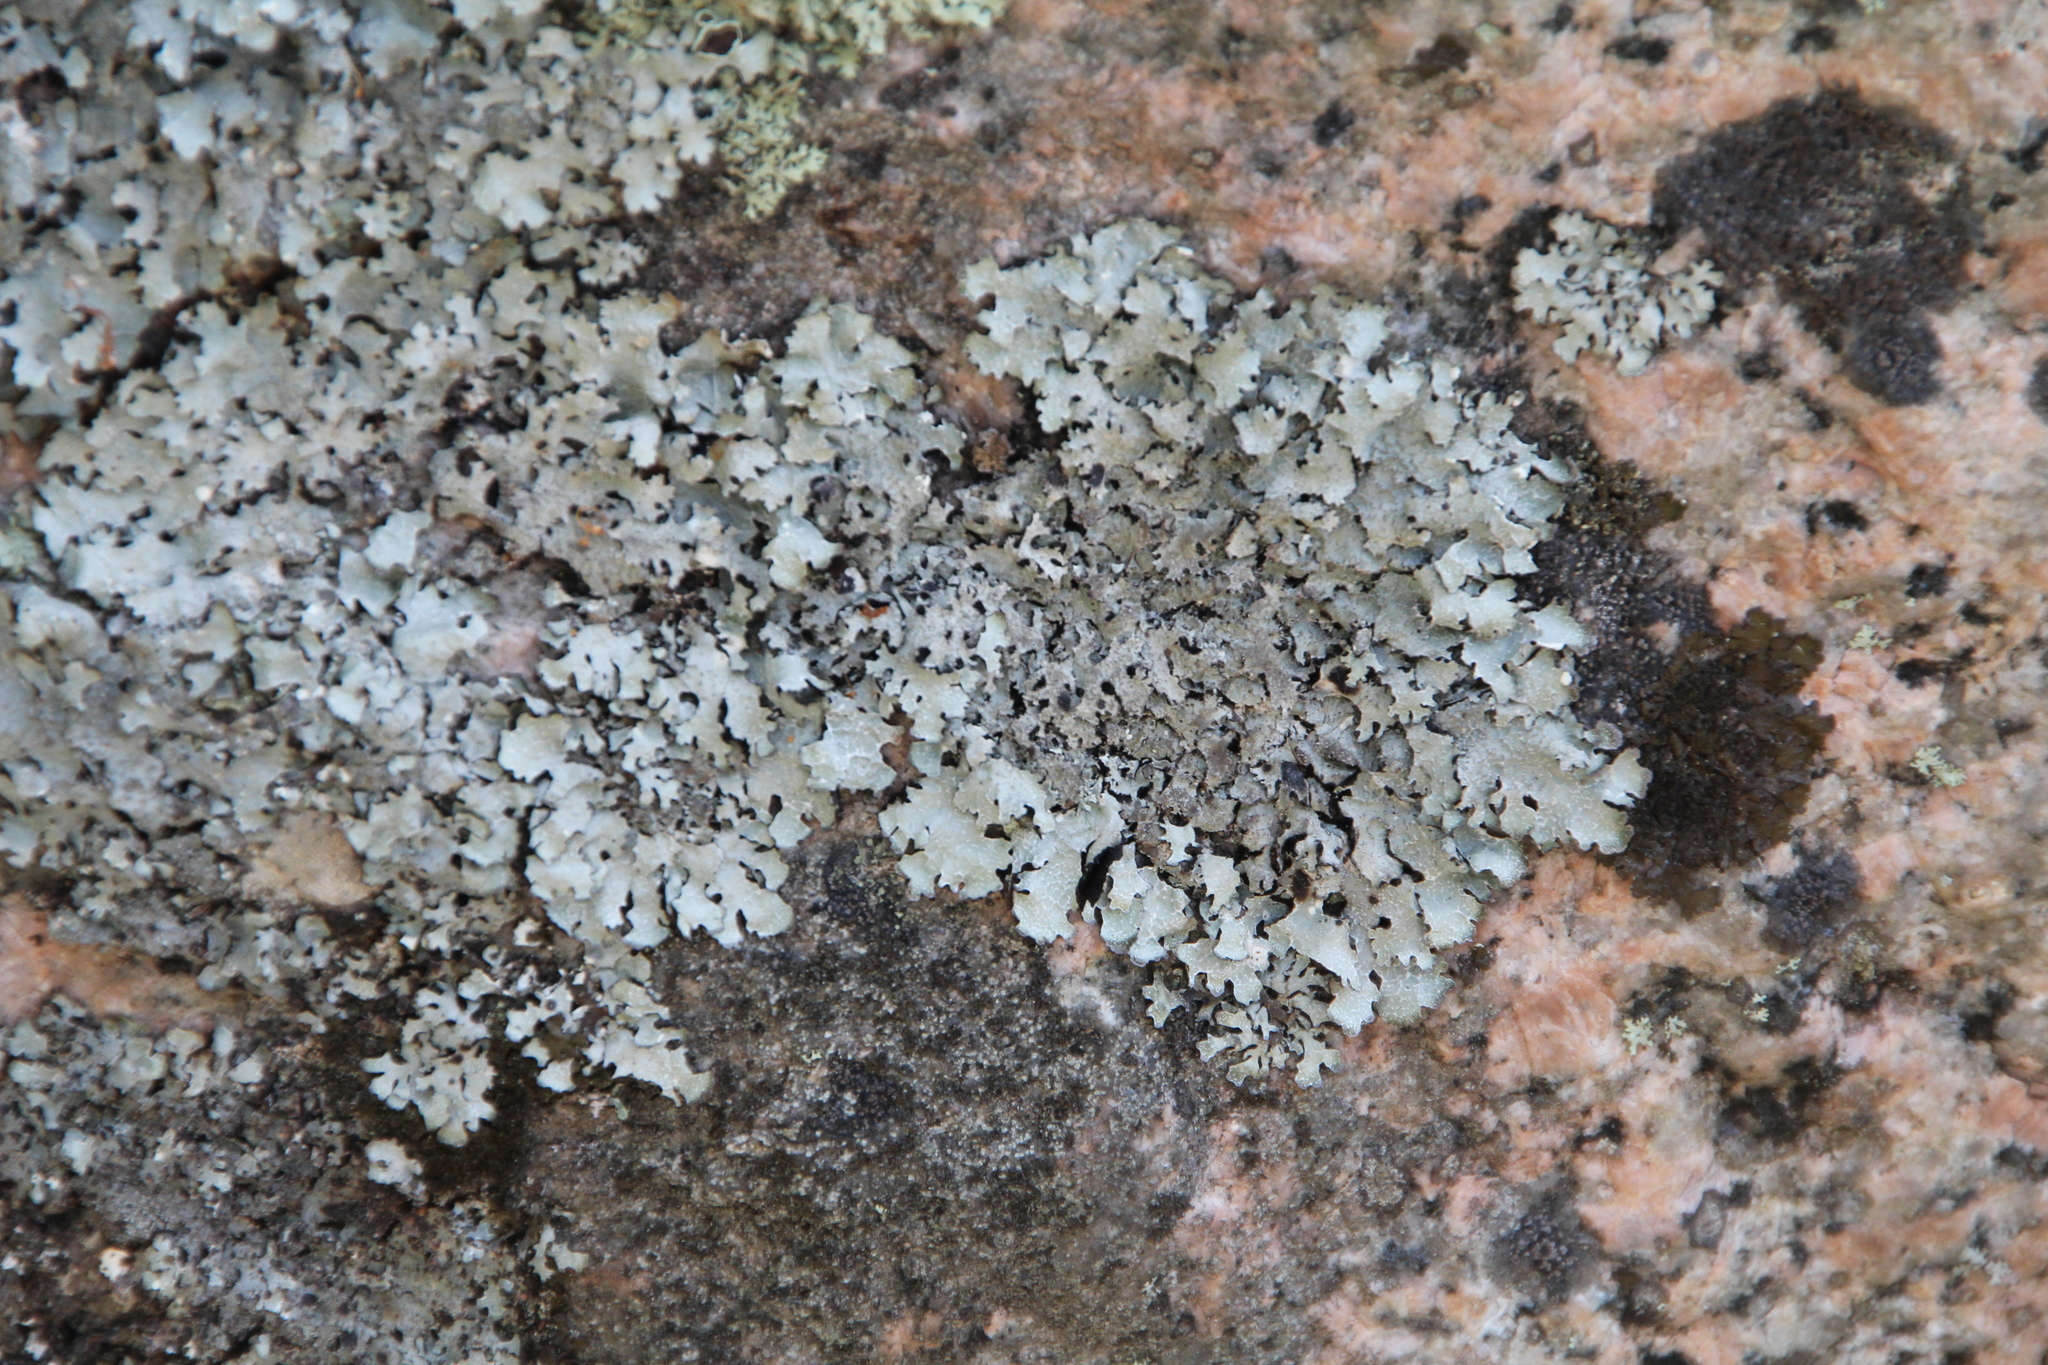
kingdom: Fungi
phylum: Ascomycota
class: Lecanoromycetes
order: Lecanorales
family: Parmeliaceae
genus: Parmelia
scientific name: Parmelia saxatilis
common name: Salted shield lichen
